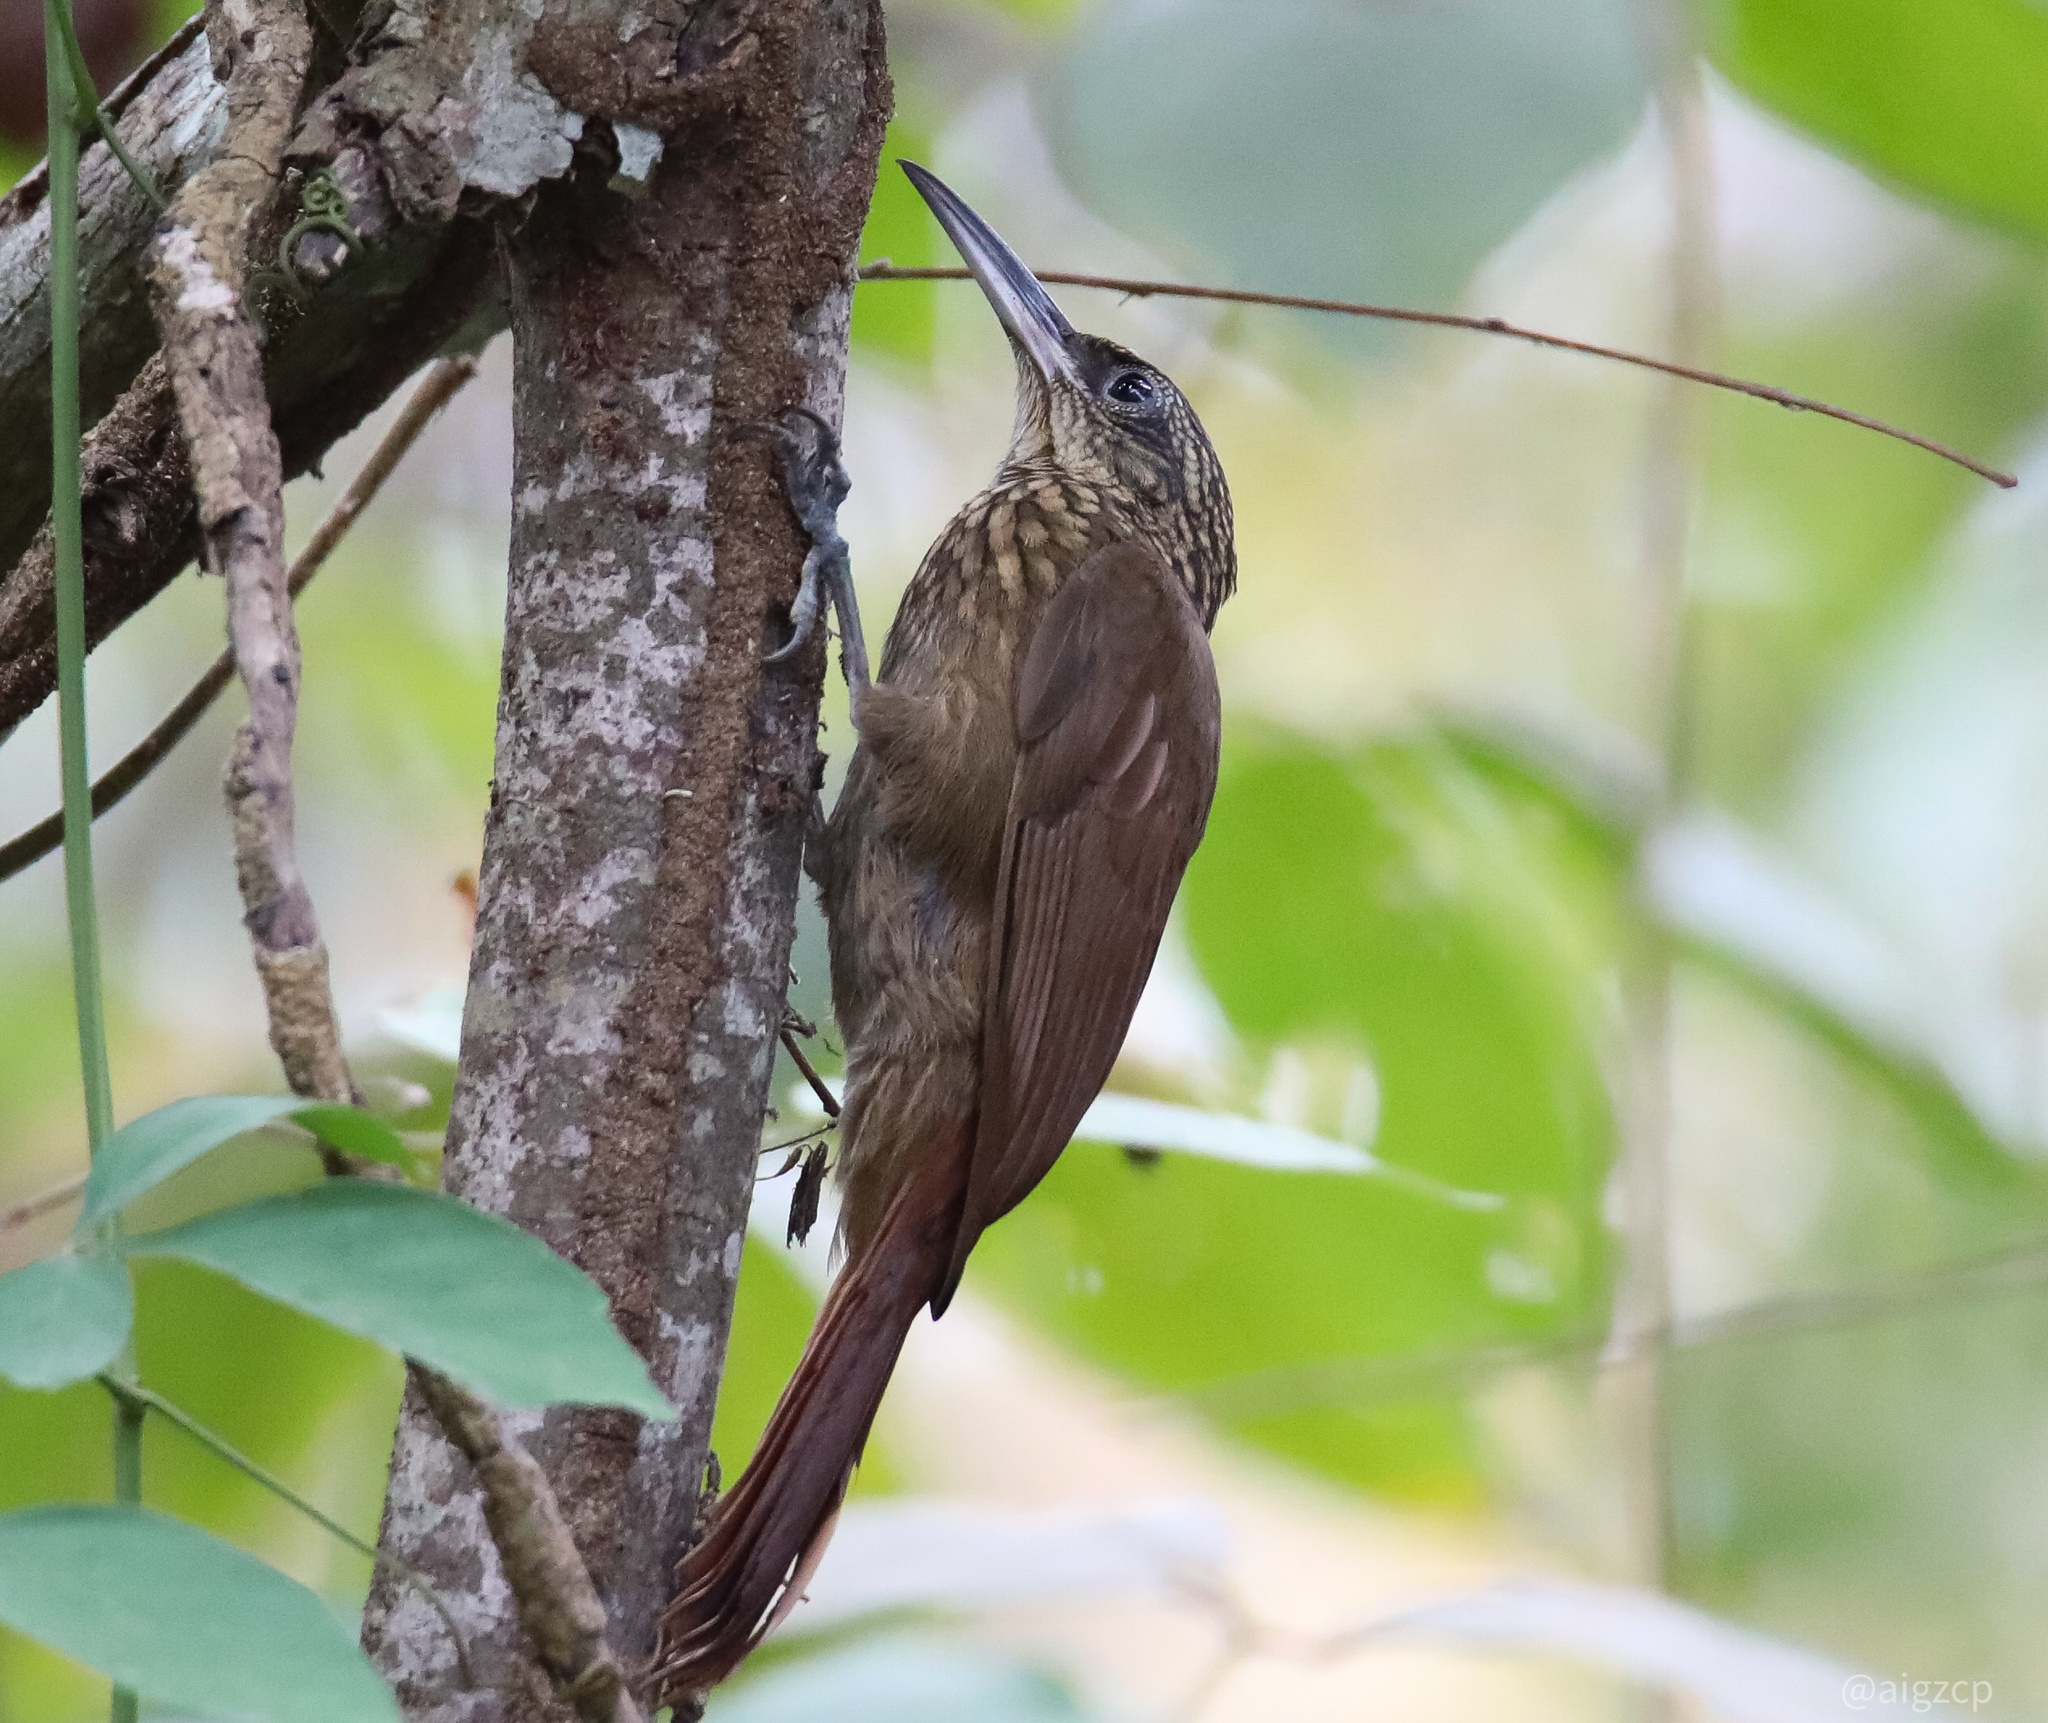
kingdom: Animalia
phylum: Chordata
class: Aves
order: Passeriformes
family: Furnariidae
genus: Xiphorhynchus
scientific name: Xiphorhynchus susurrans
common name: Cocoa woodcreeper
